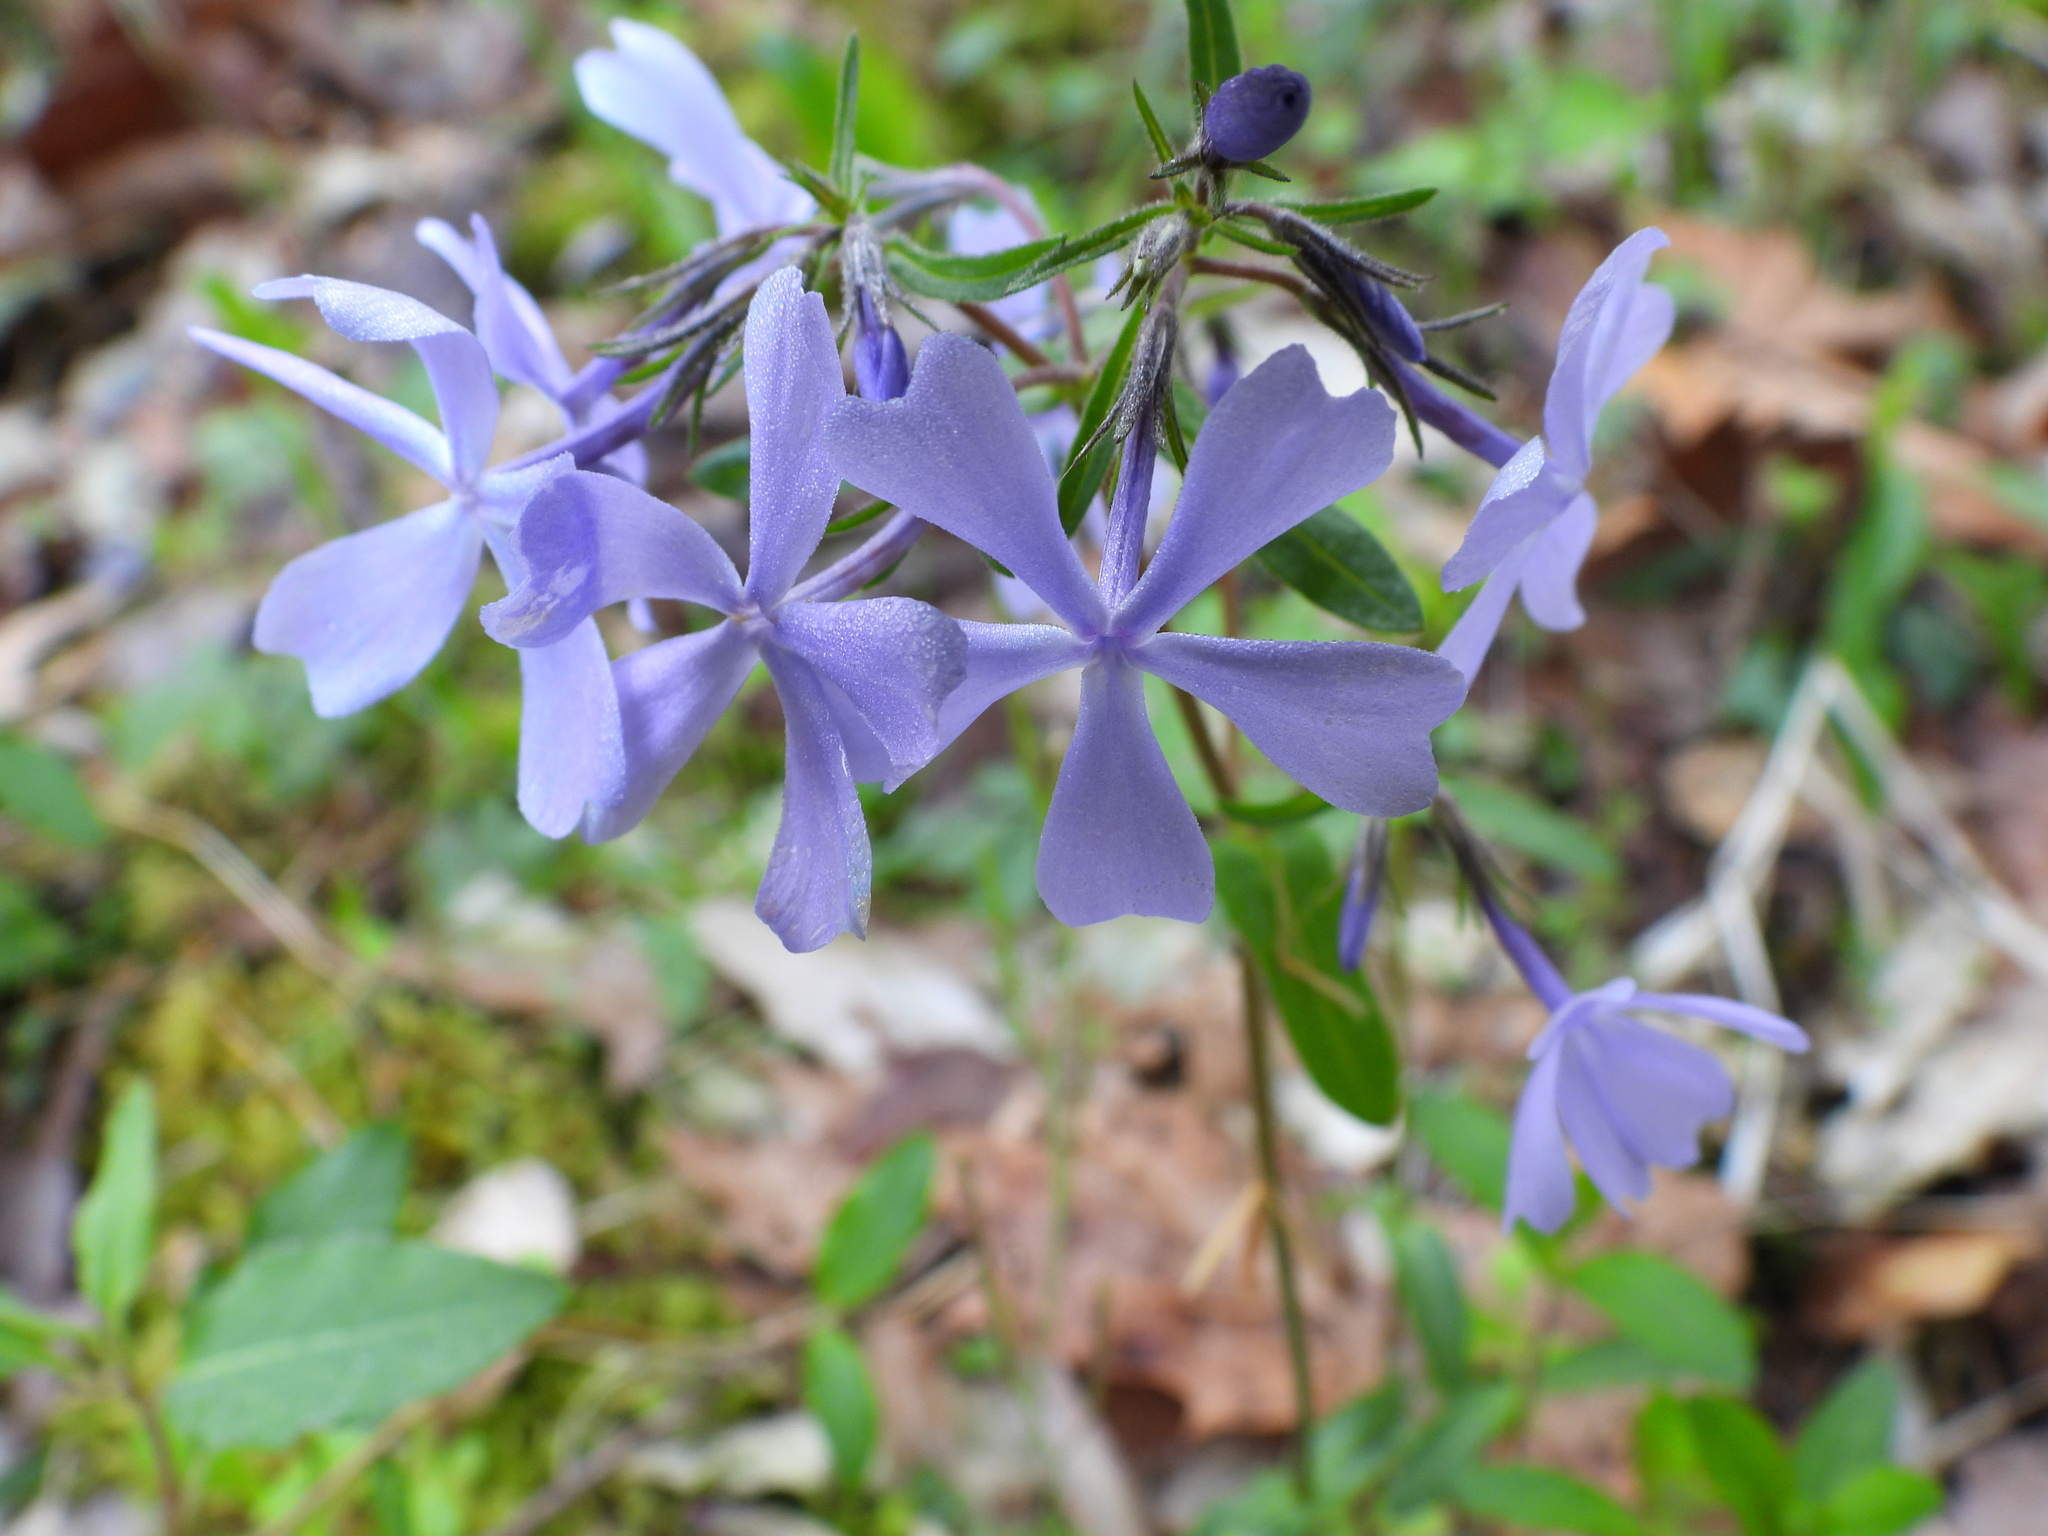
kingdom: Plantae
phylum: Tracheophyta
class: Magnoliopsida
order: Ericales
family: Polemoniaceae
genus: Phlox
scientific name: Phlox divaricata
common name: Blue phlox
